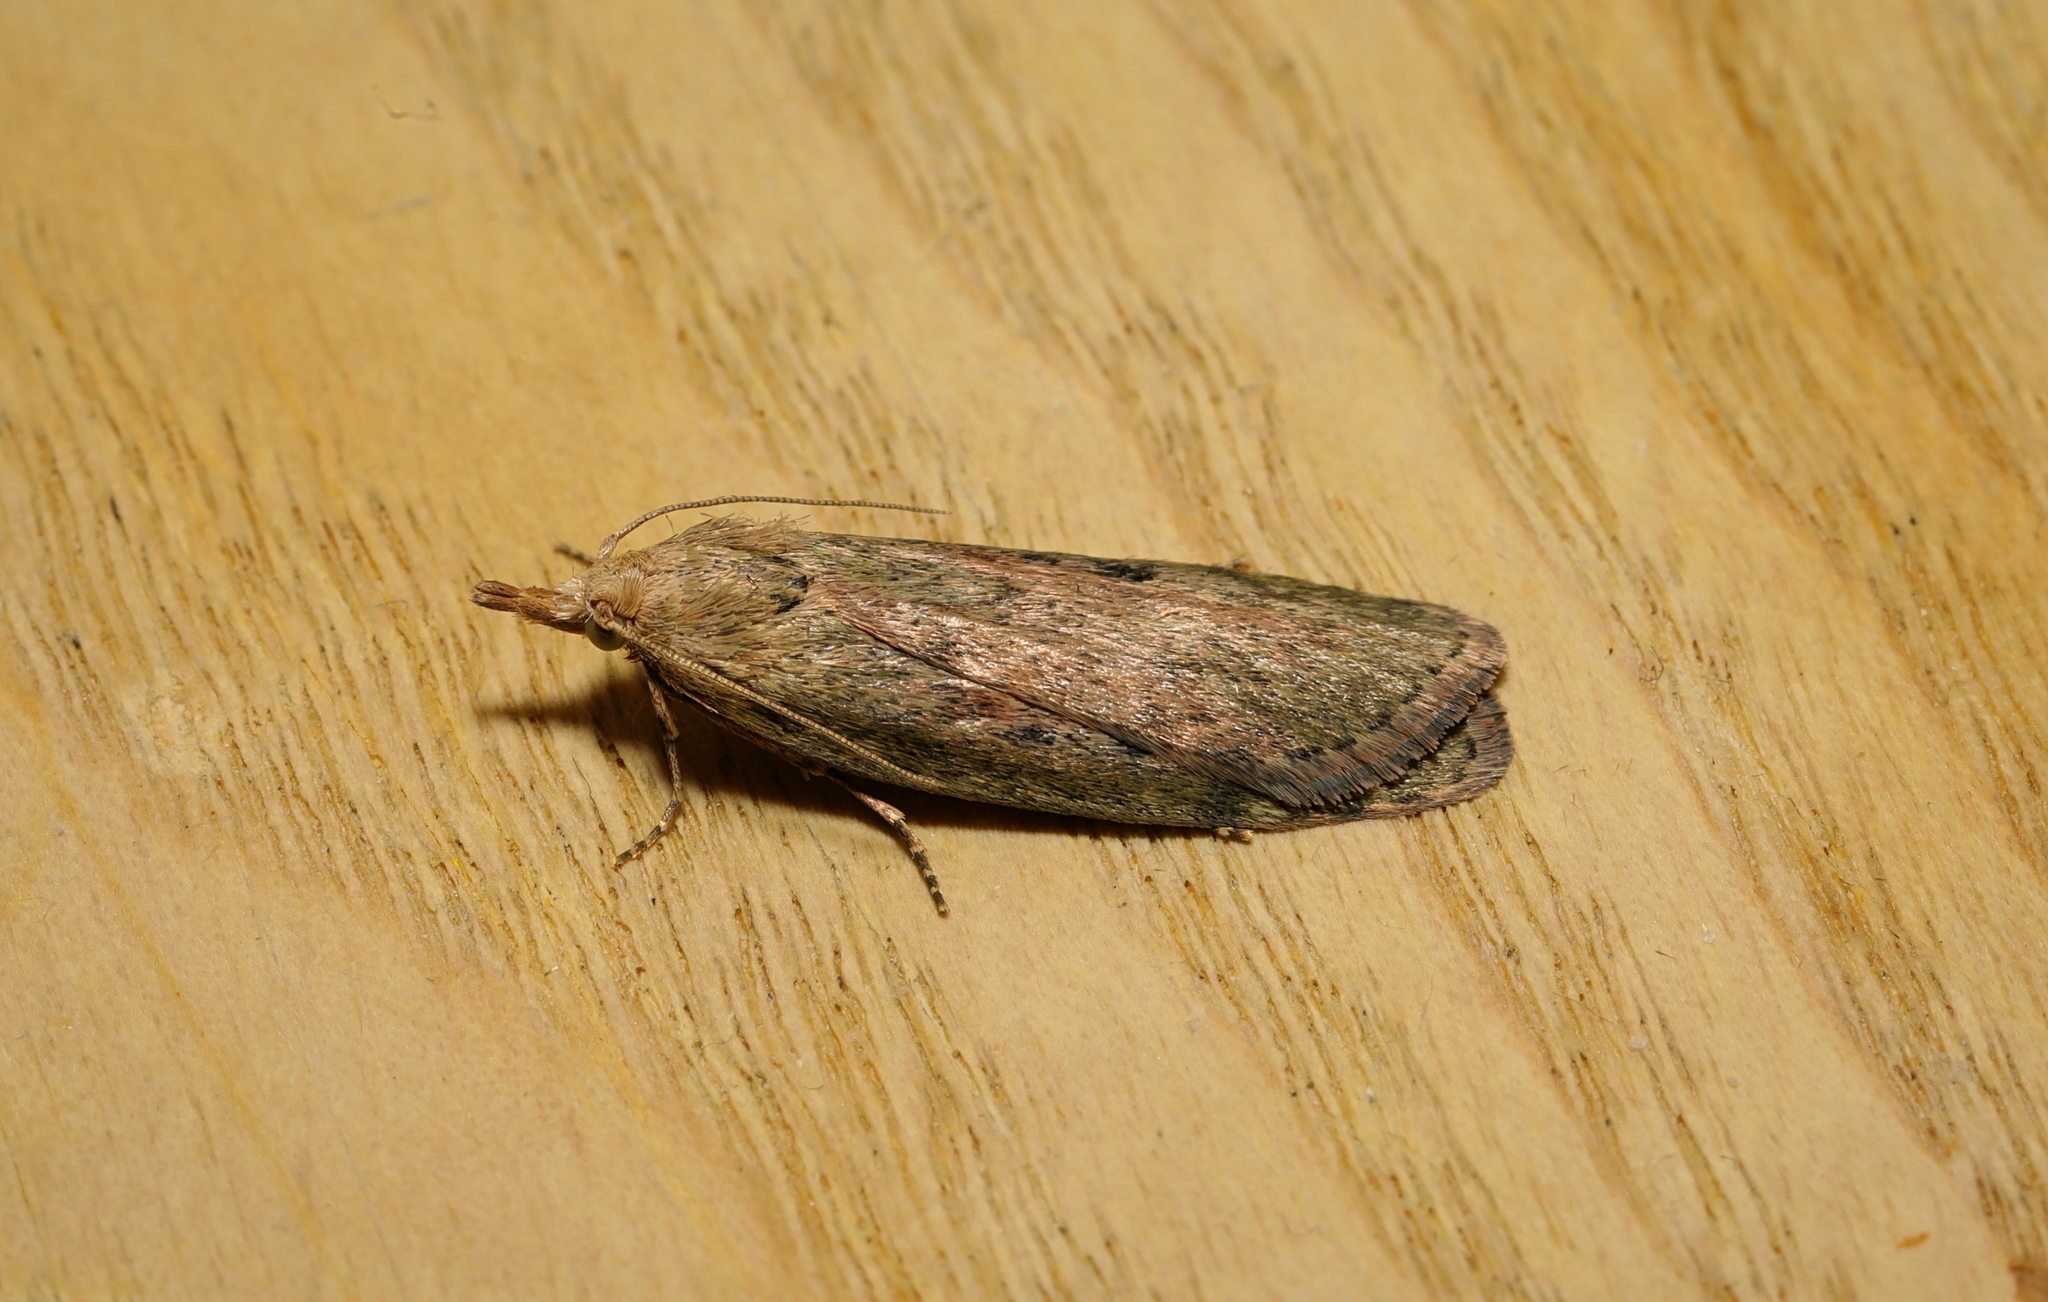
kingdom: Animalia
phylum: Arthropoda
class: Insecta
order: Lepidoptera
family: Pyralidae
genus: Aphomia
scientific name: Aphomia sociella
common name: Bee moth
